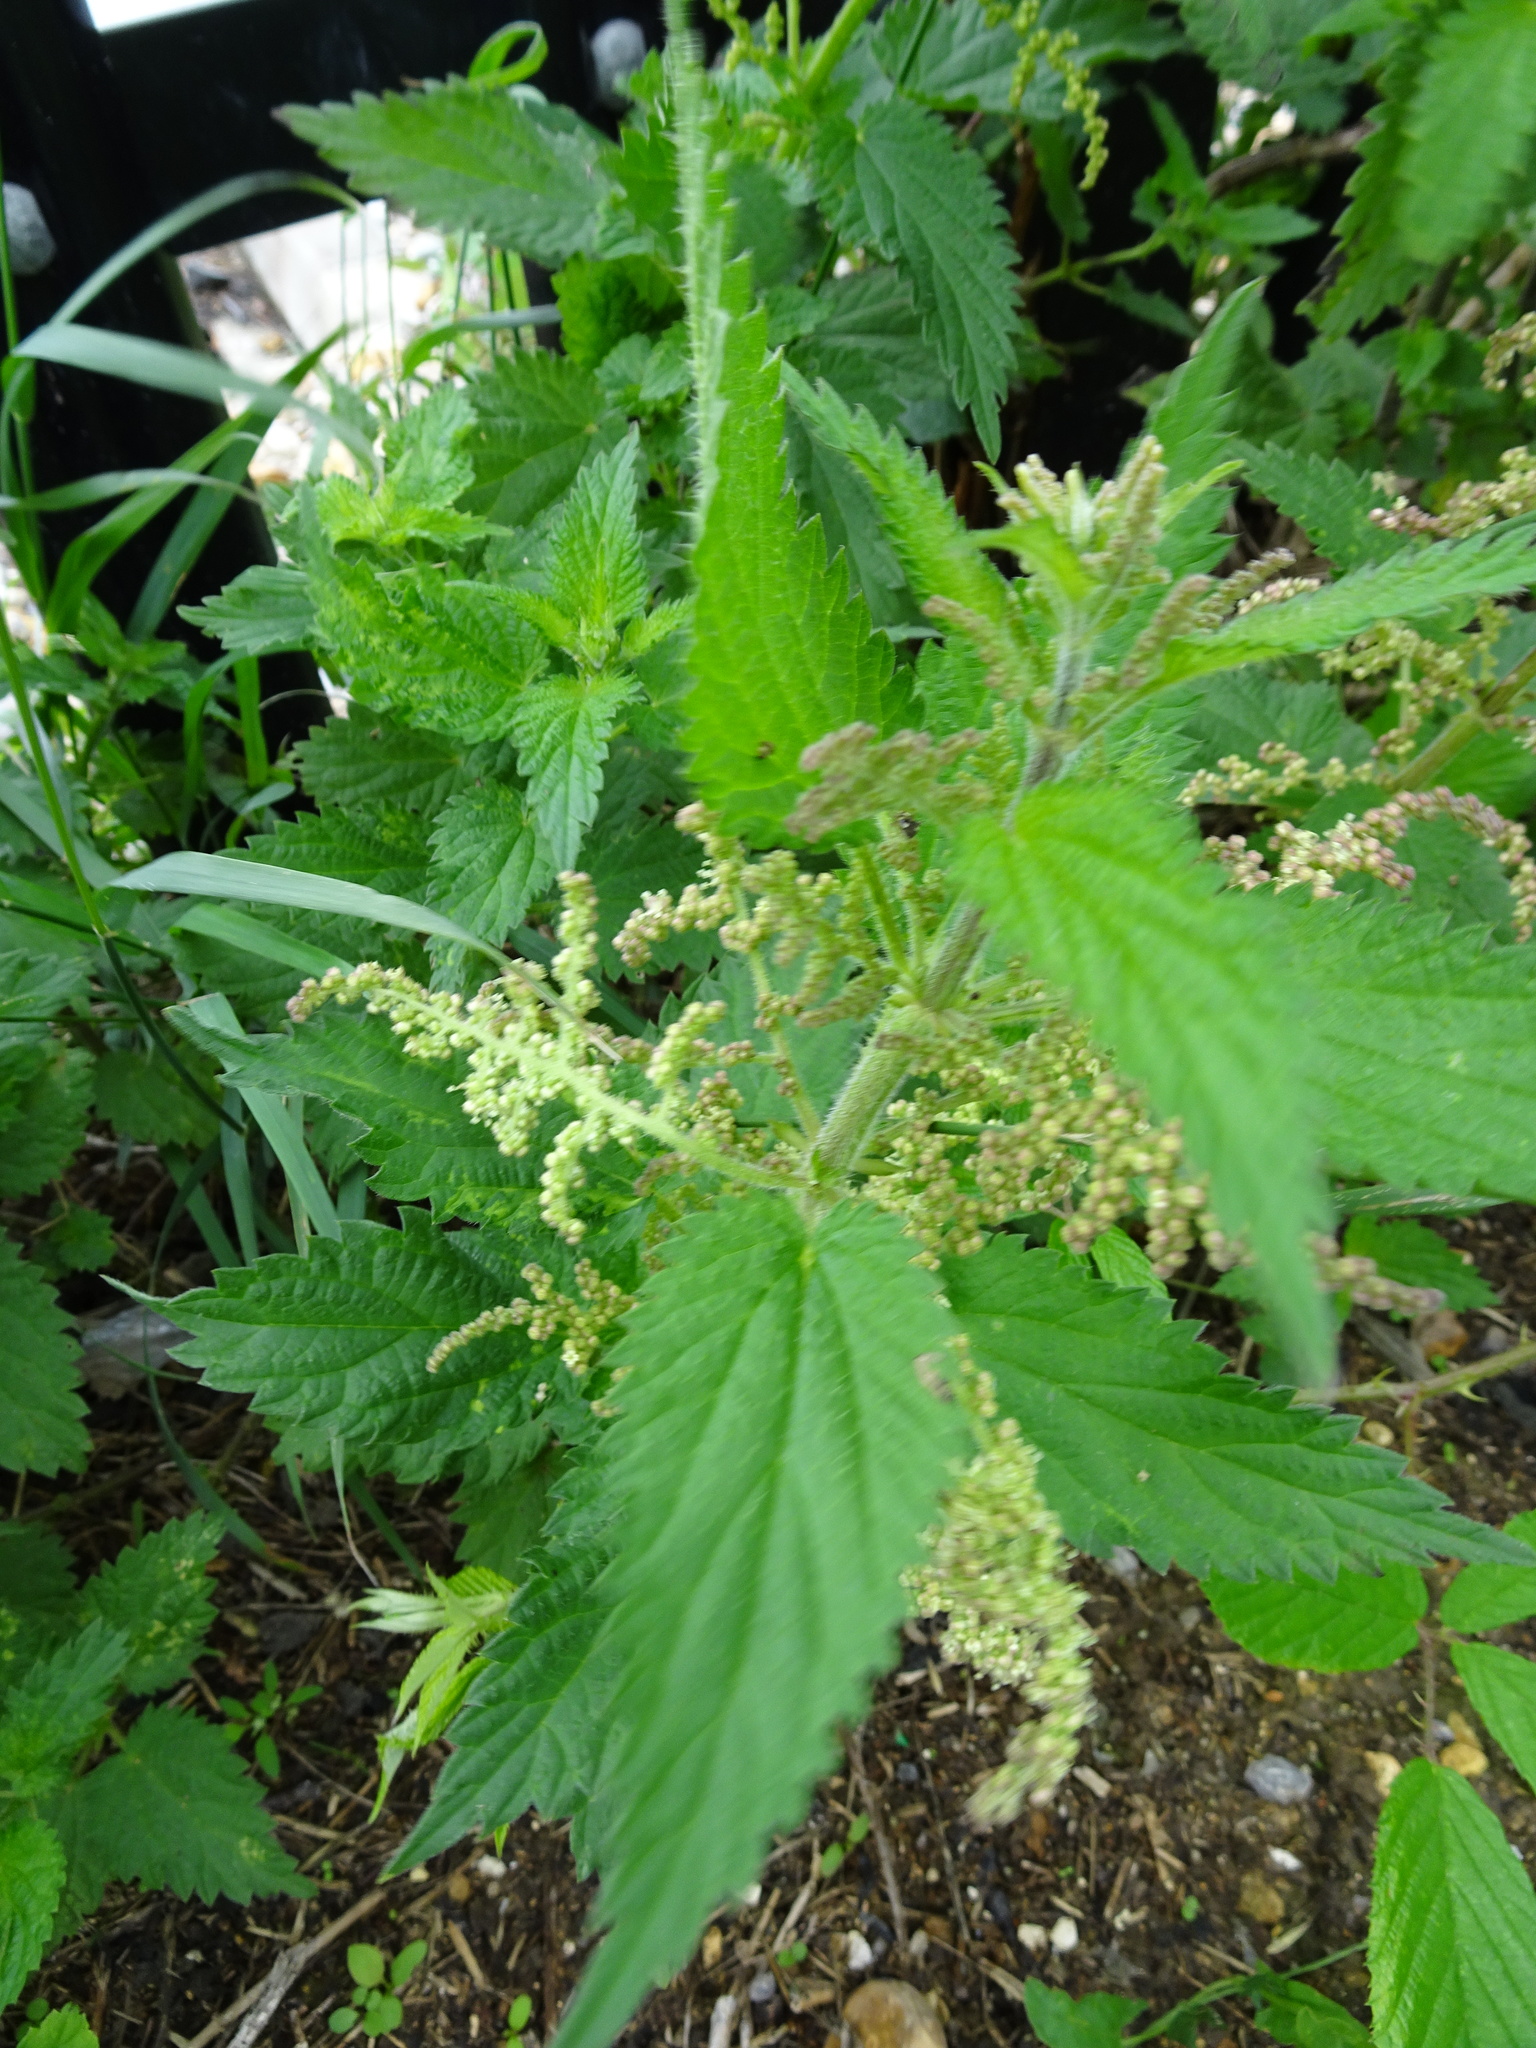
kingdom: Plantae
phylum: Tracheophyta
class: Magnoliopsida
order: Rosales
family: Urticaceae
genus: Urtica
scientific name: Urtica dioica
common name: Common nettle
